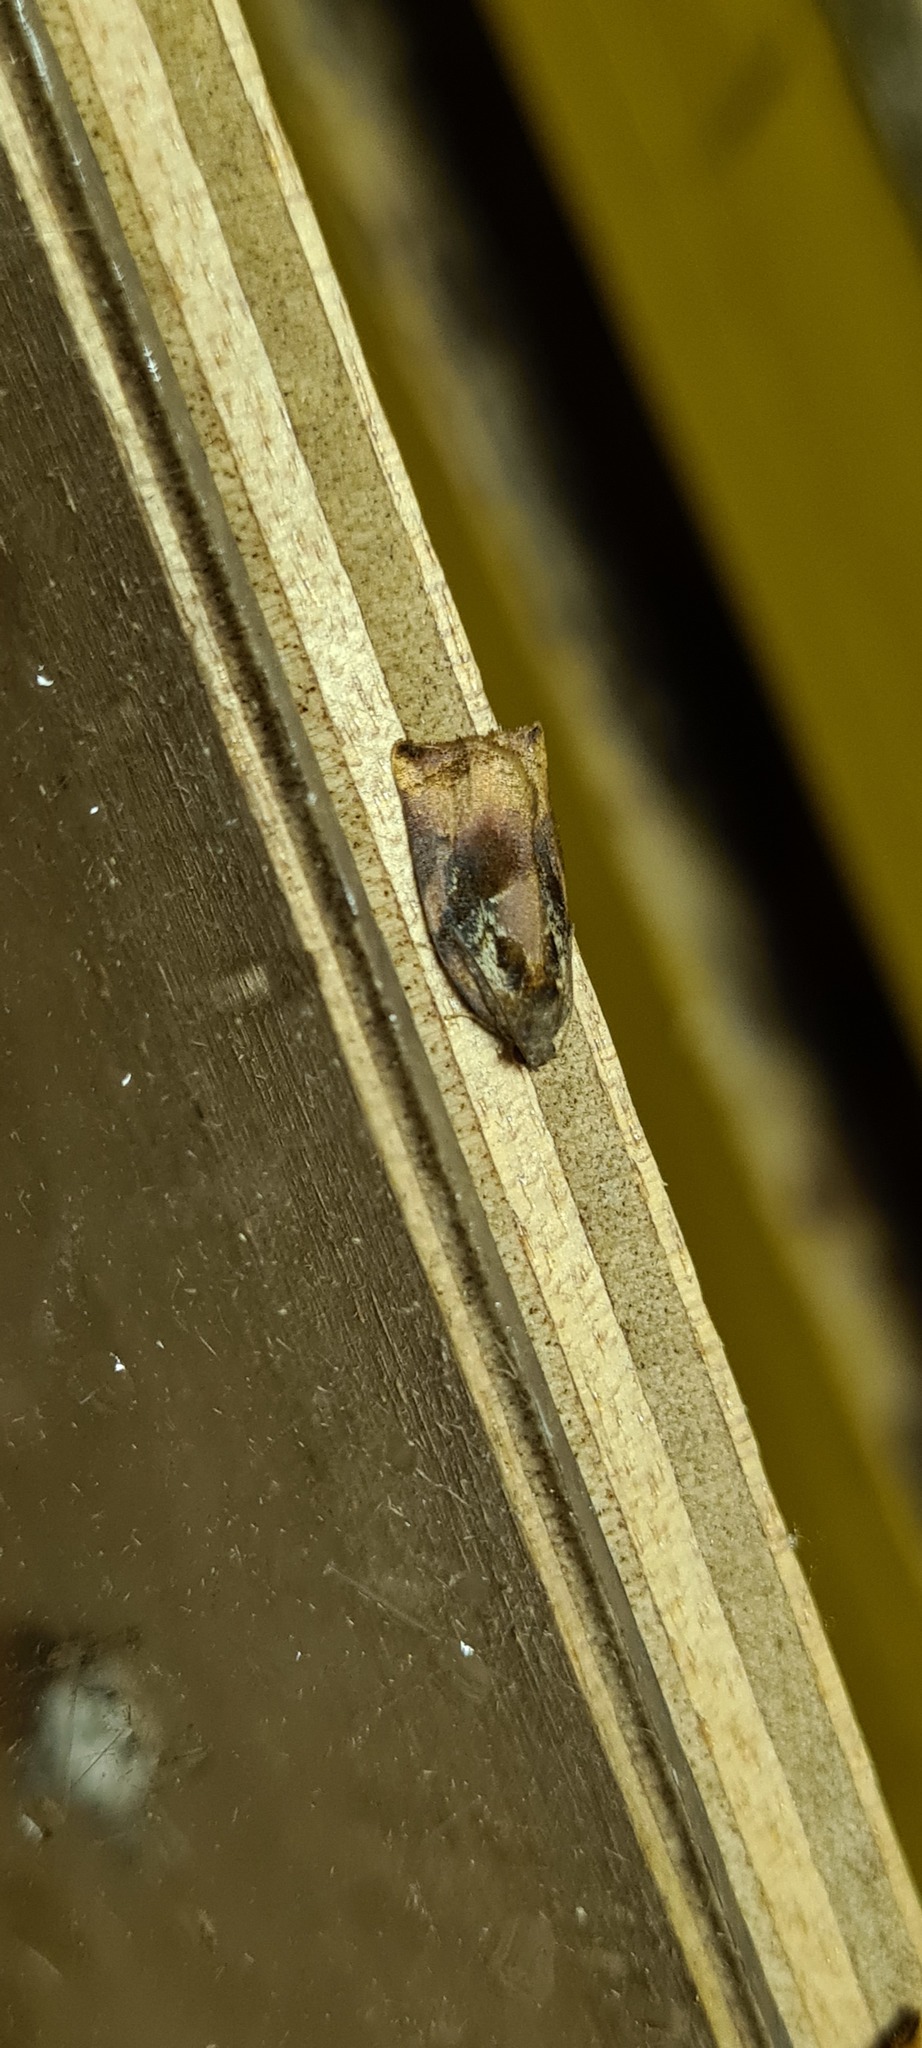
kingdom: Animalia
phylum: Arthropoda
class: Insecta
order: Lepidoptera
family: Tortricidae
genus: Archips
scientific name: Archips podana
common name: Large fruit-tree tortrix
